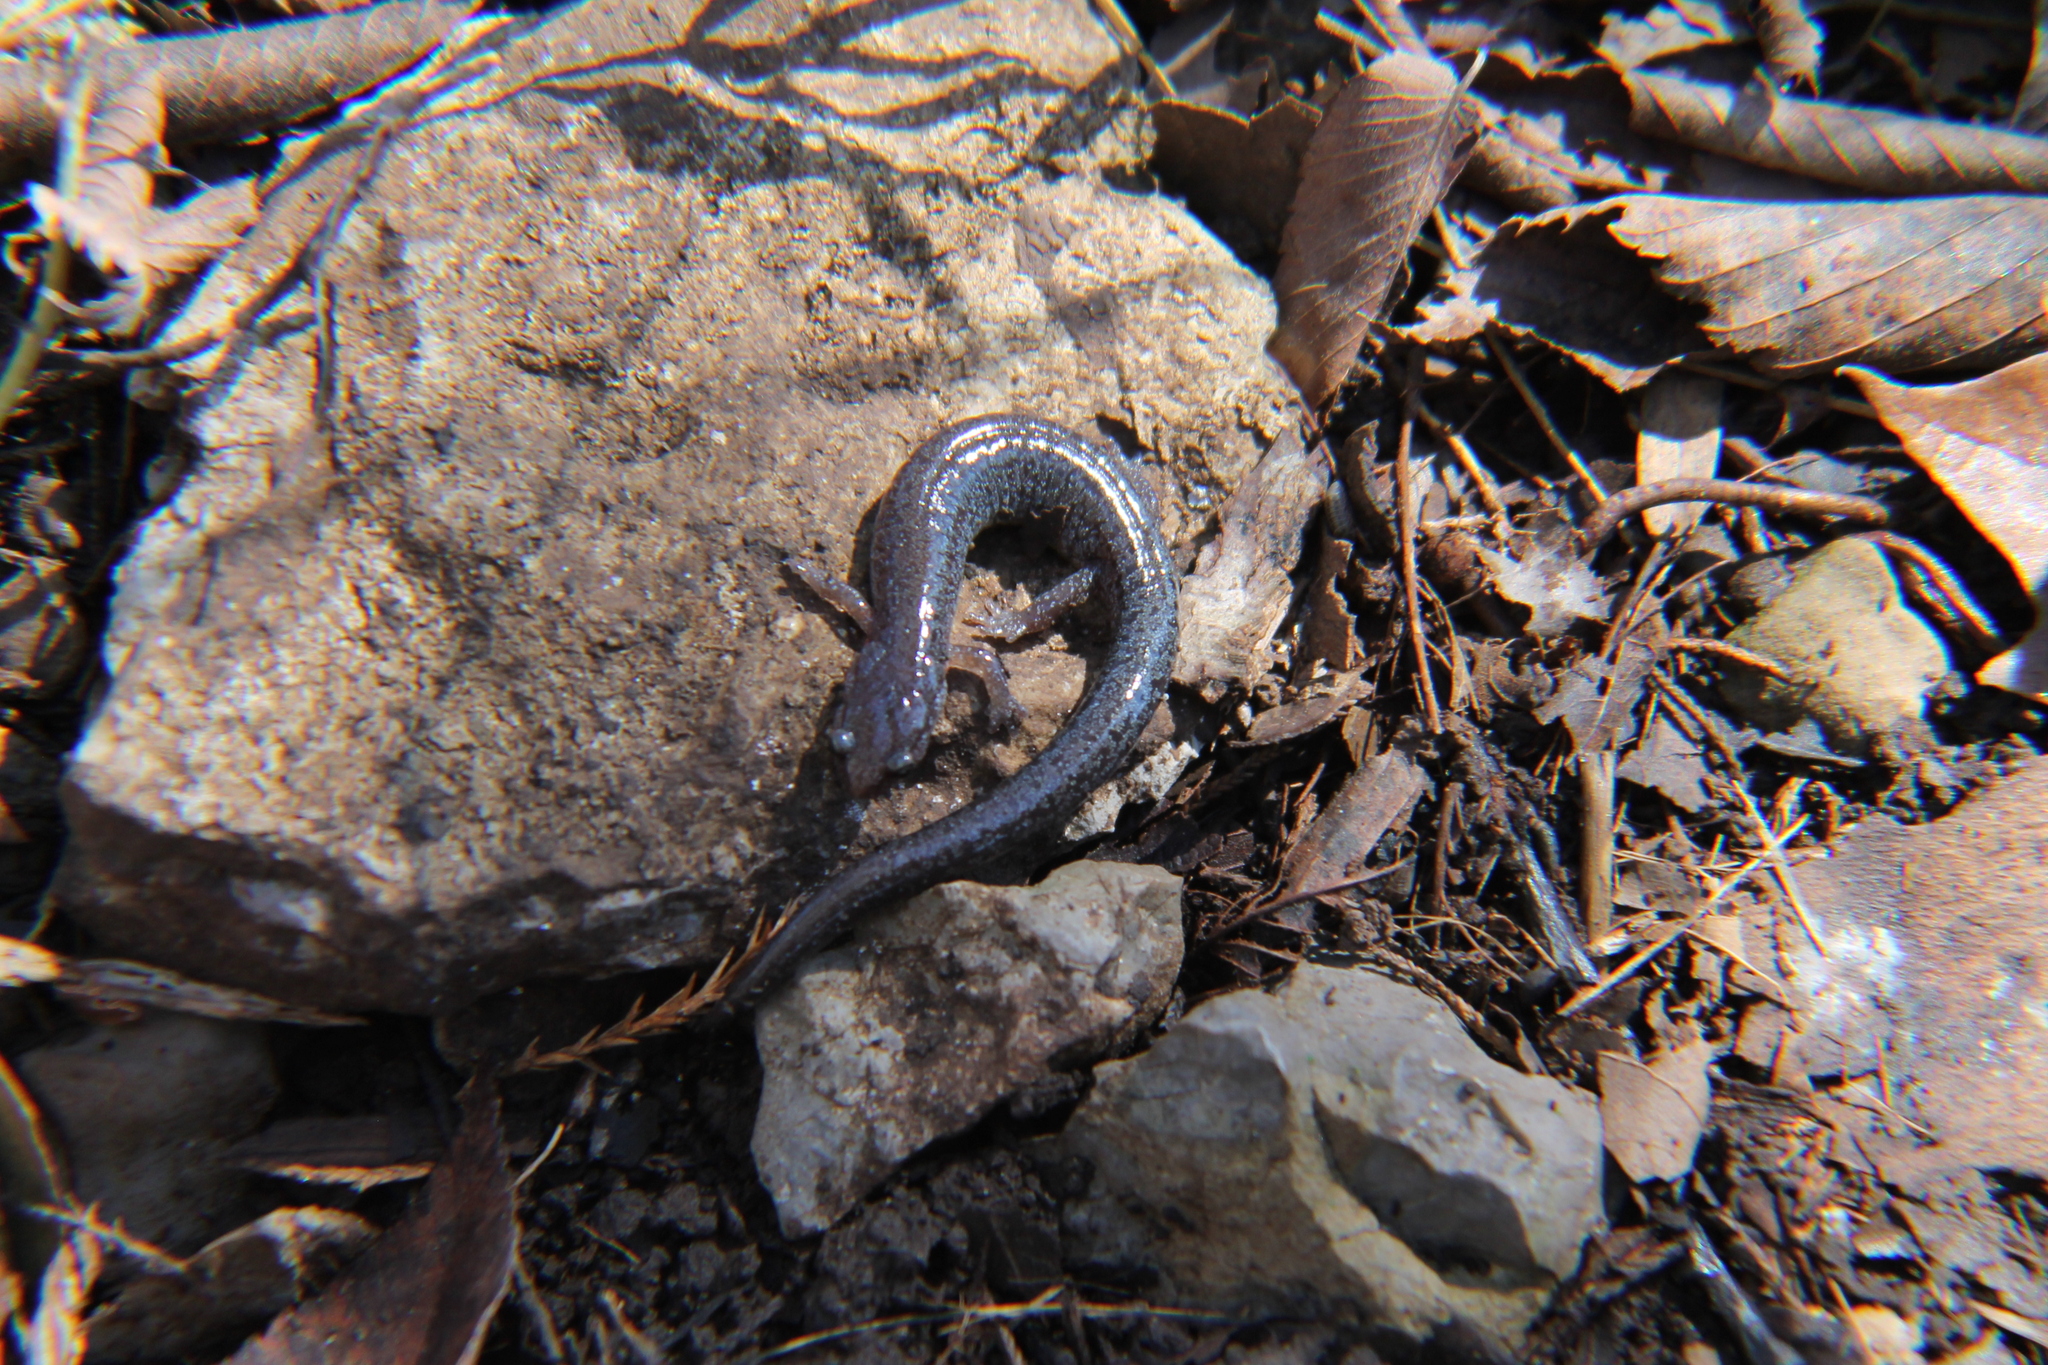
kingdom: Animalia
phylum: Chordata
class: Amphibia
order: Caudata
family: Plethodontidae
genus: Plethodon
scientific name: Plethodon dorsalis
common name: Northern zigzag salamander
